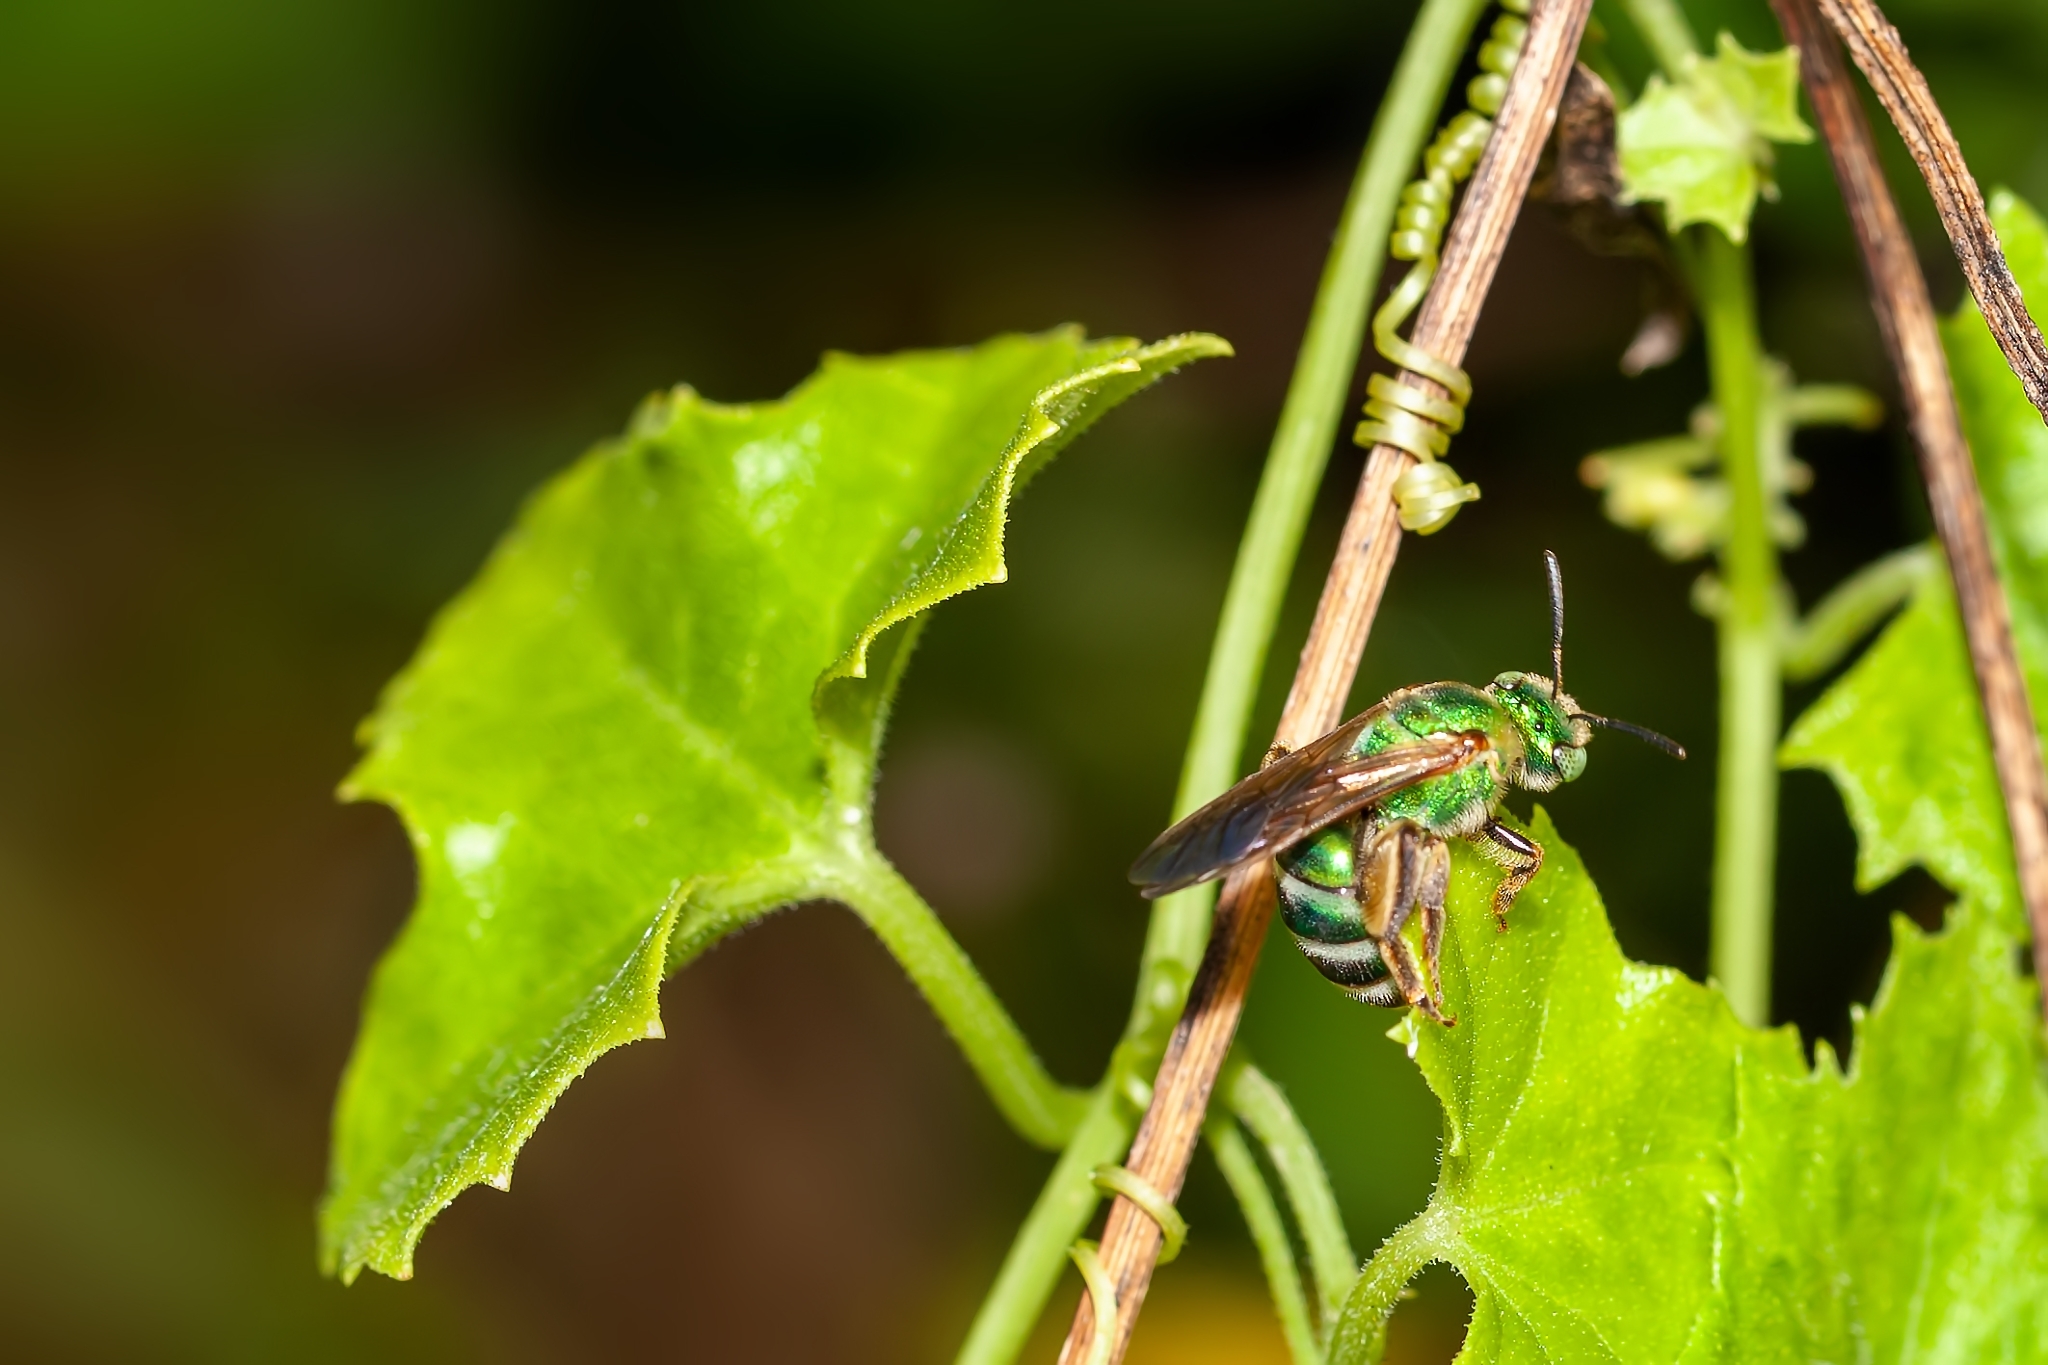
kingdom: Animalia
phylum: Arthropoda
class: Insecta
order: Hymenoptera
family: Halictidae
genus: Agapostemon
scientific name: Agapostemon splendens
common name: Brown-winged striped sweat bee
